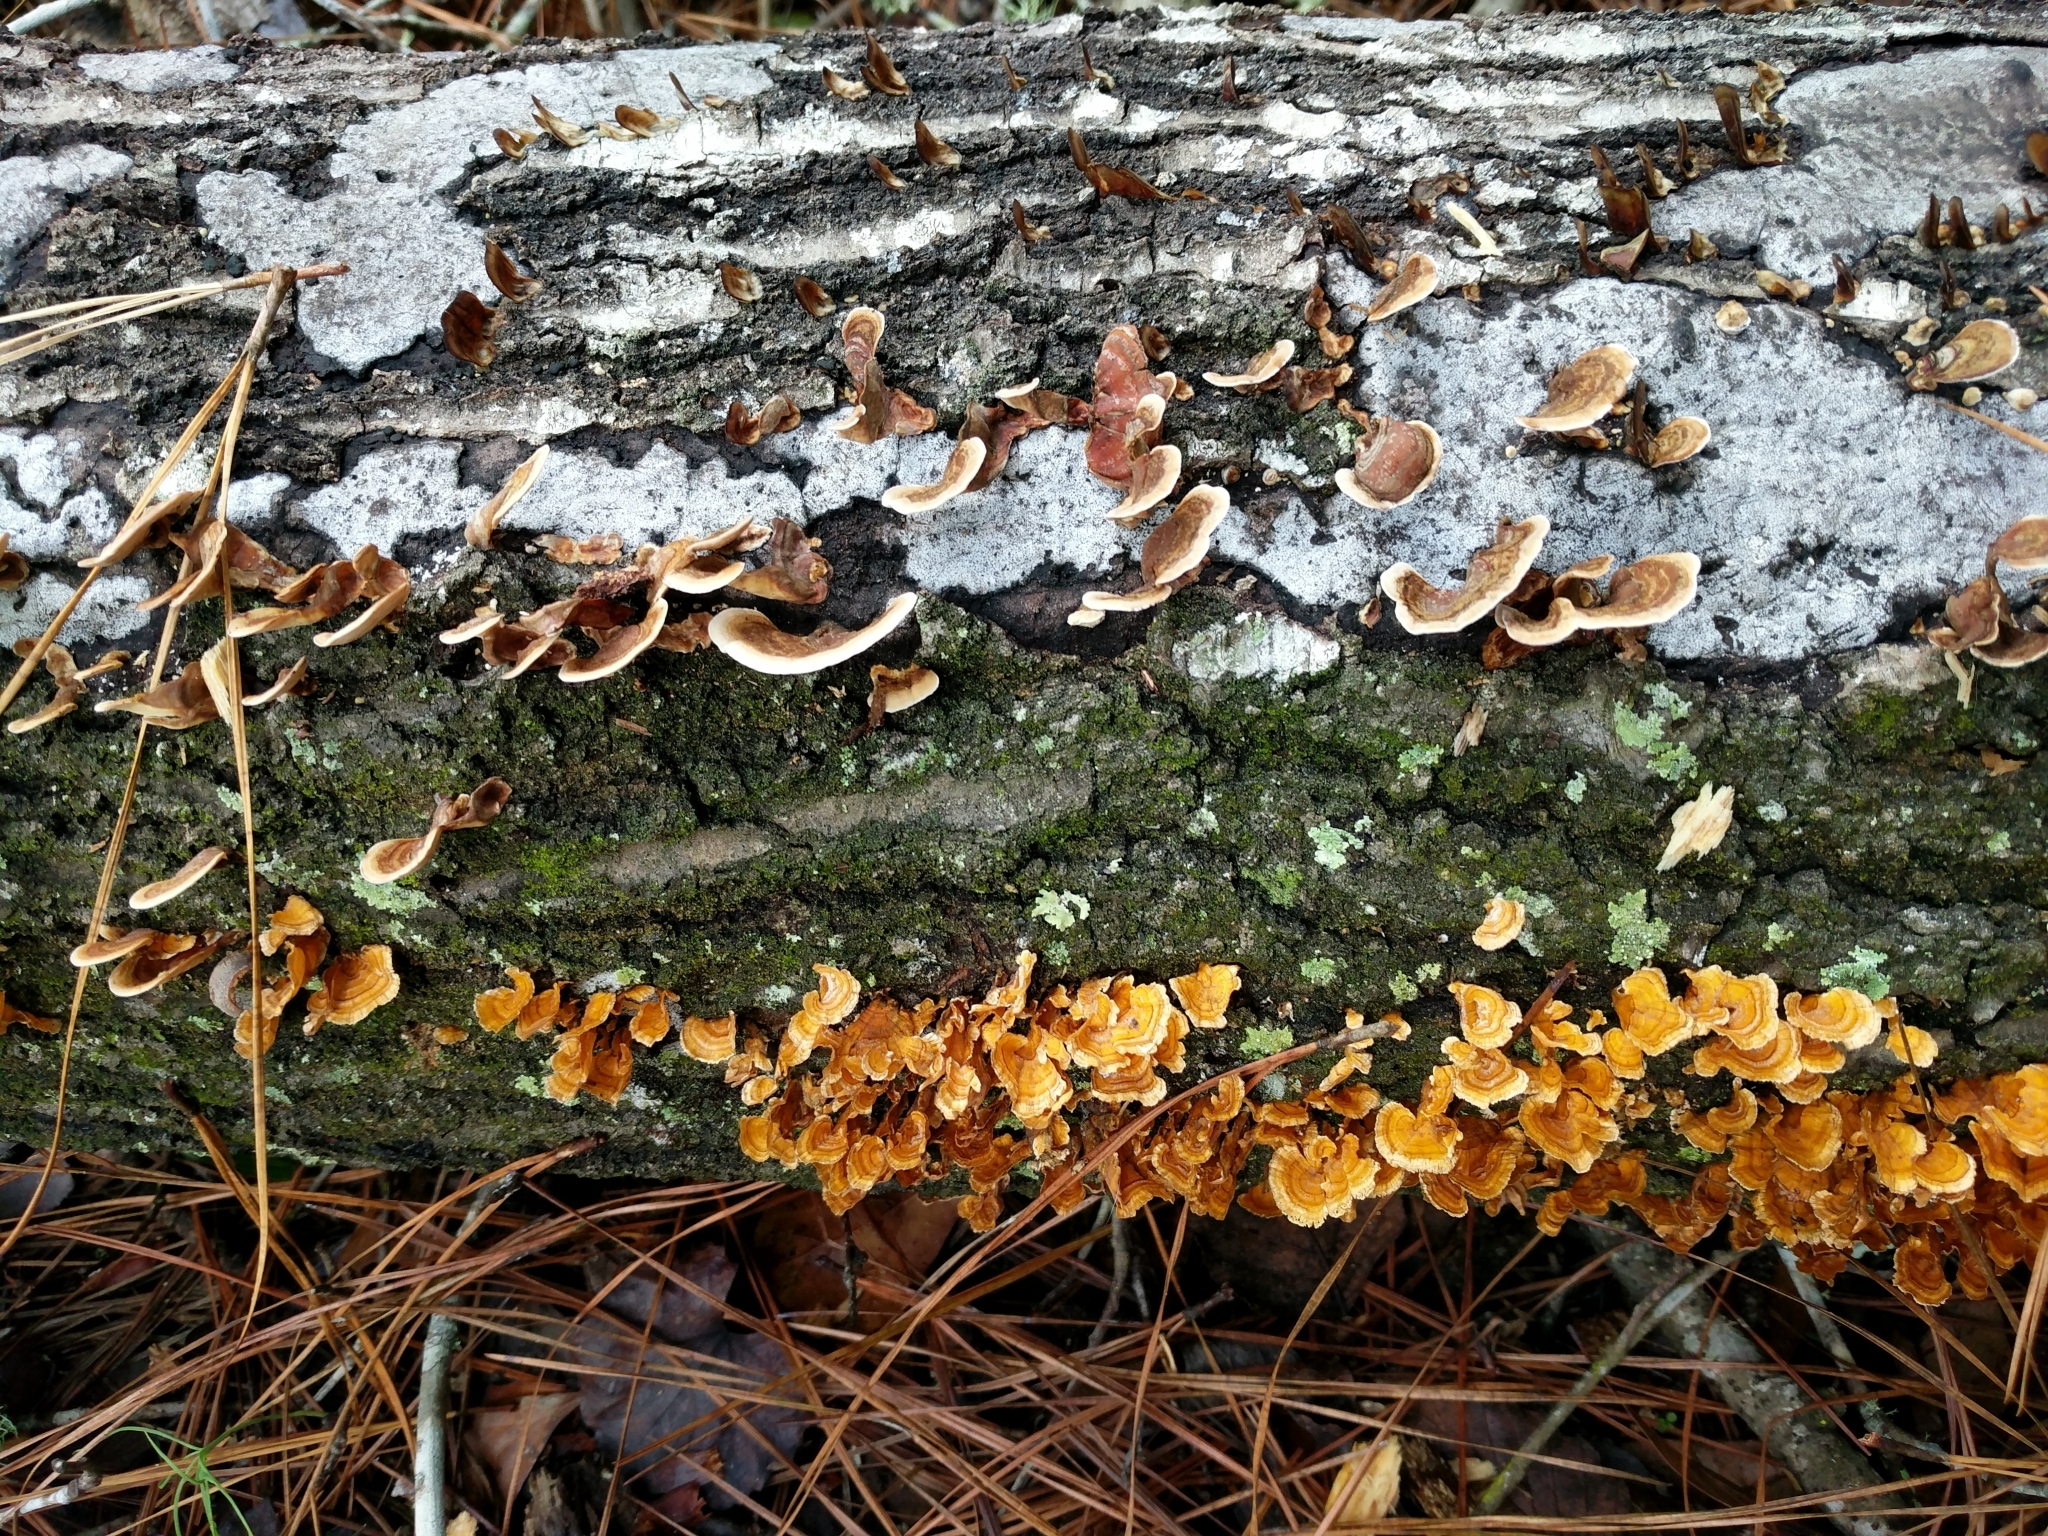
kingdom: Fungi
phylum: Basidiomycota
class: Agaricomycetes
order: Russulales
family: Stereaceae
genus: Stereum
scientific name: Stereum complicatum
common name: Crowded parchment
